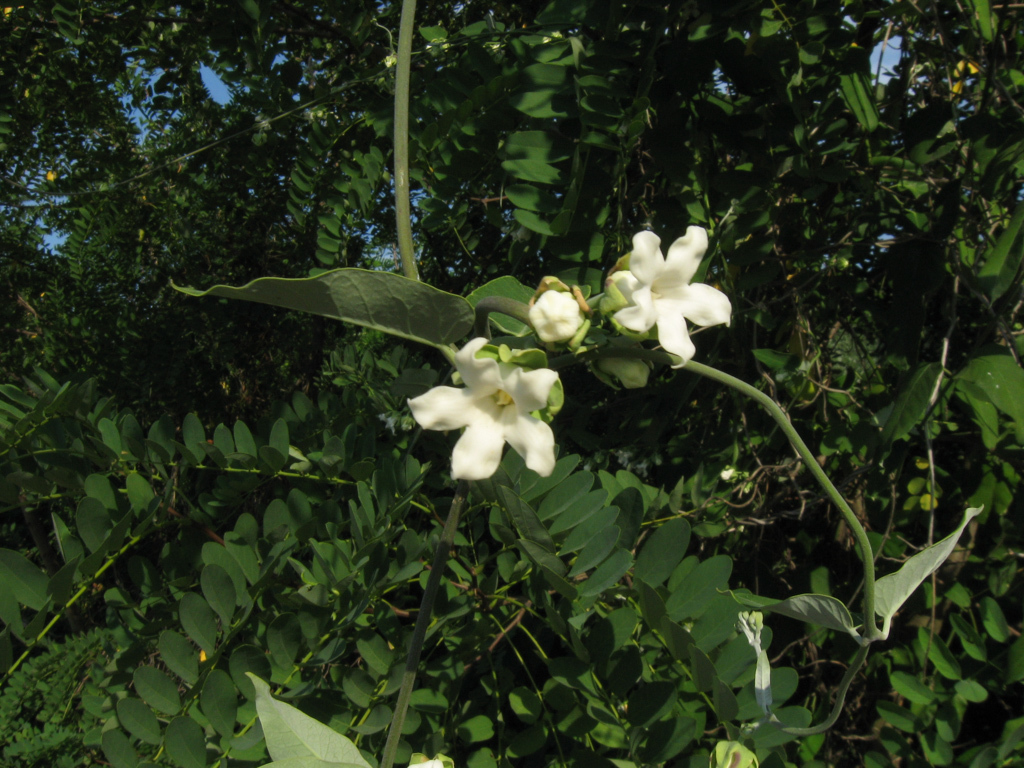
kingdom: Plantae
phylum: Tracheophyta
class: Magnoliopsida
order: Gentianales
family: Apocynaceae
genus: Araujia
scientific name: Araujia sericifera
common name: White bladderflower
